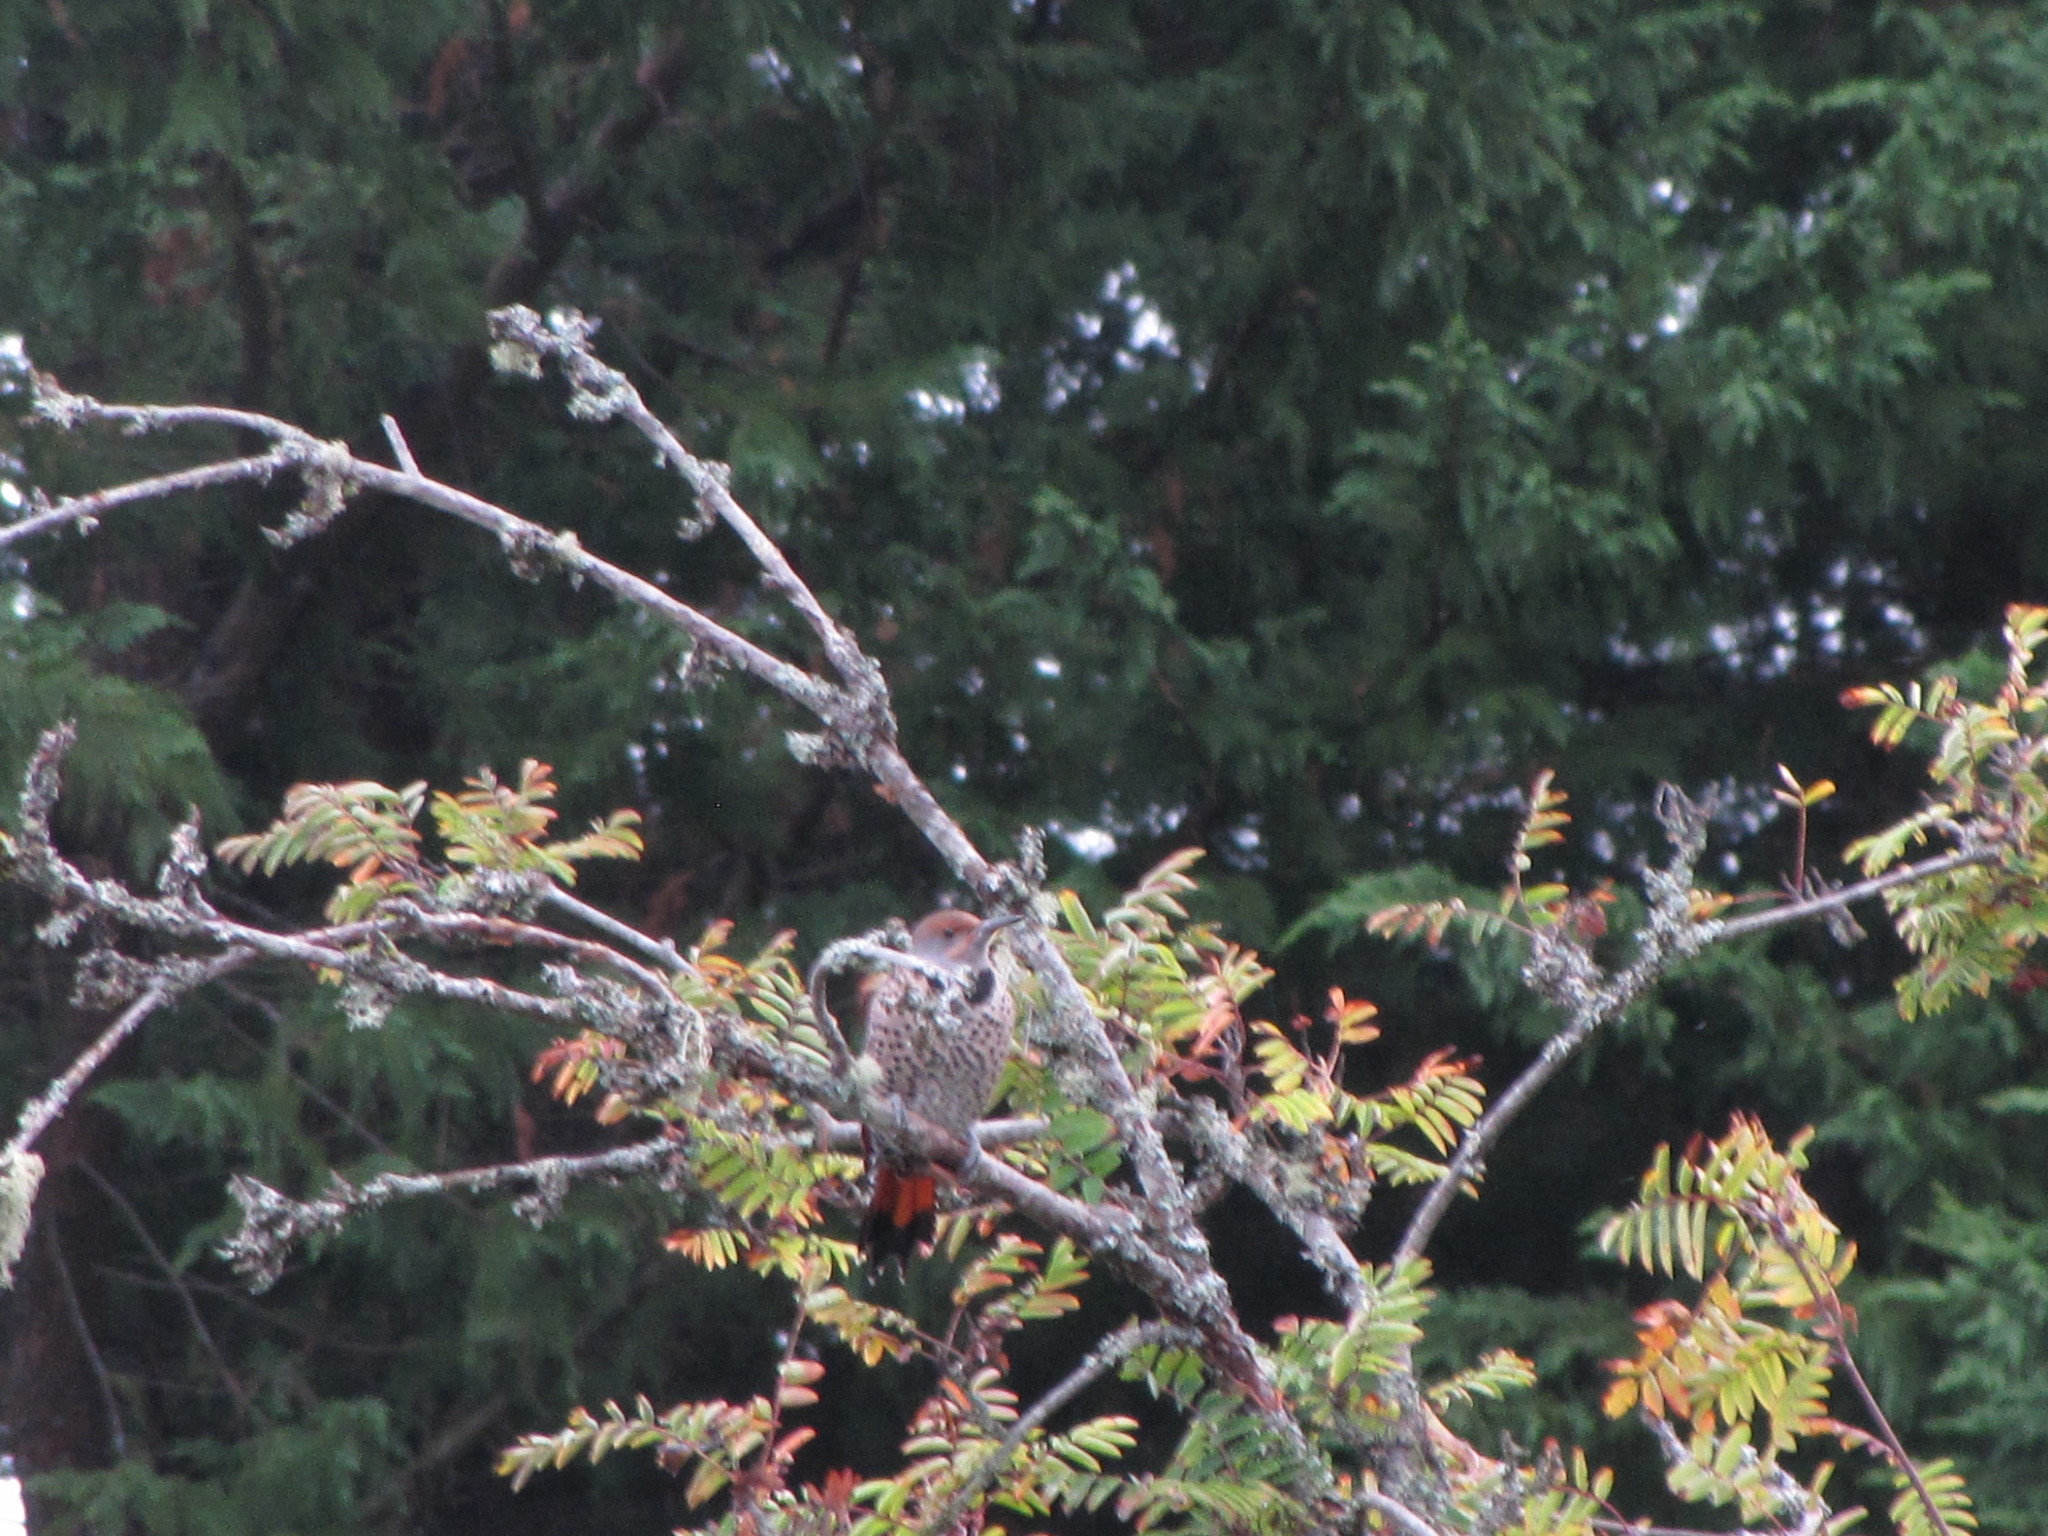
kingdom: Animalia
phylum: Chordata
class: Aves
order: Piciformes
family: Picidae
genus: Colaptes
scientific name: Colaptes auratus
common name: Northern flicker
